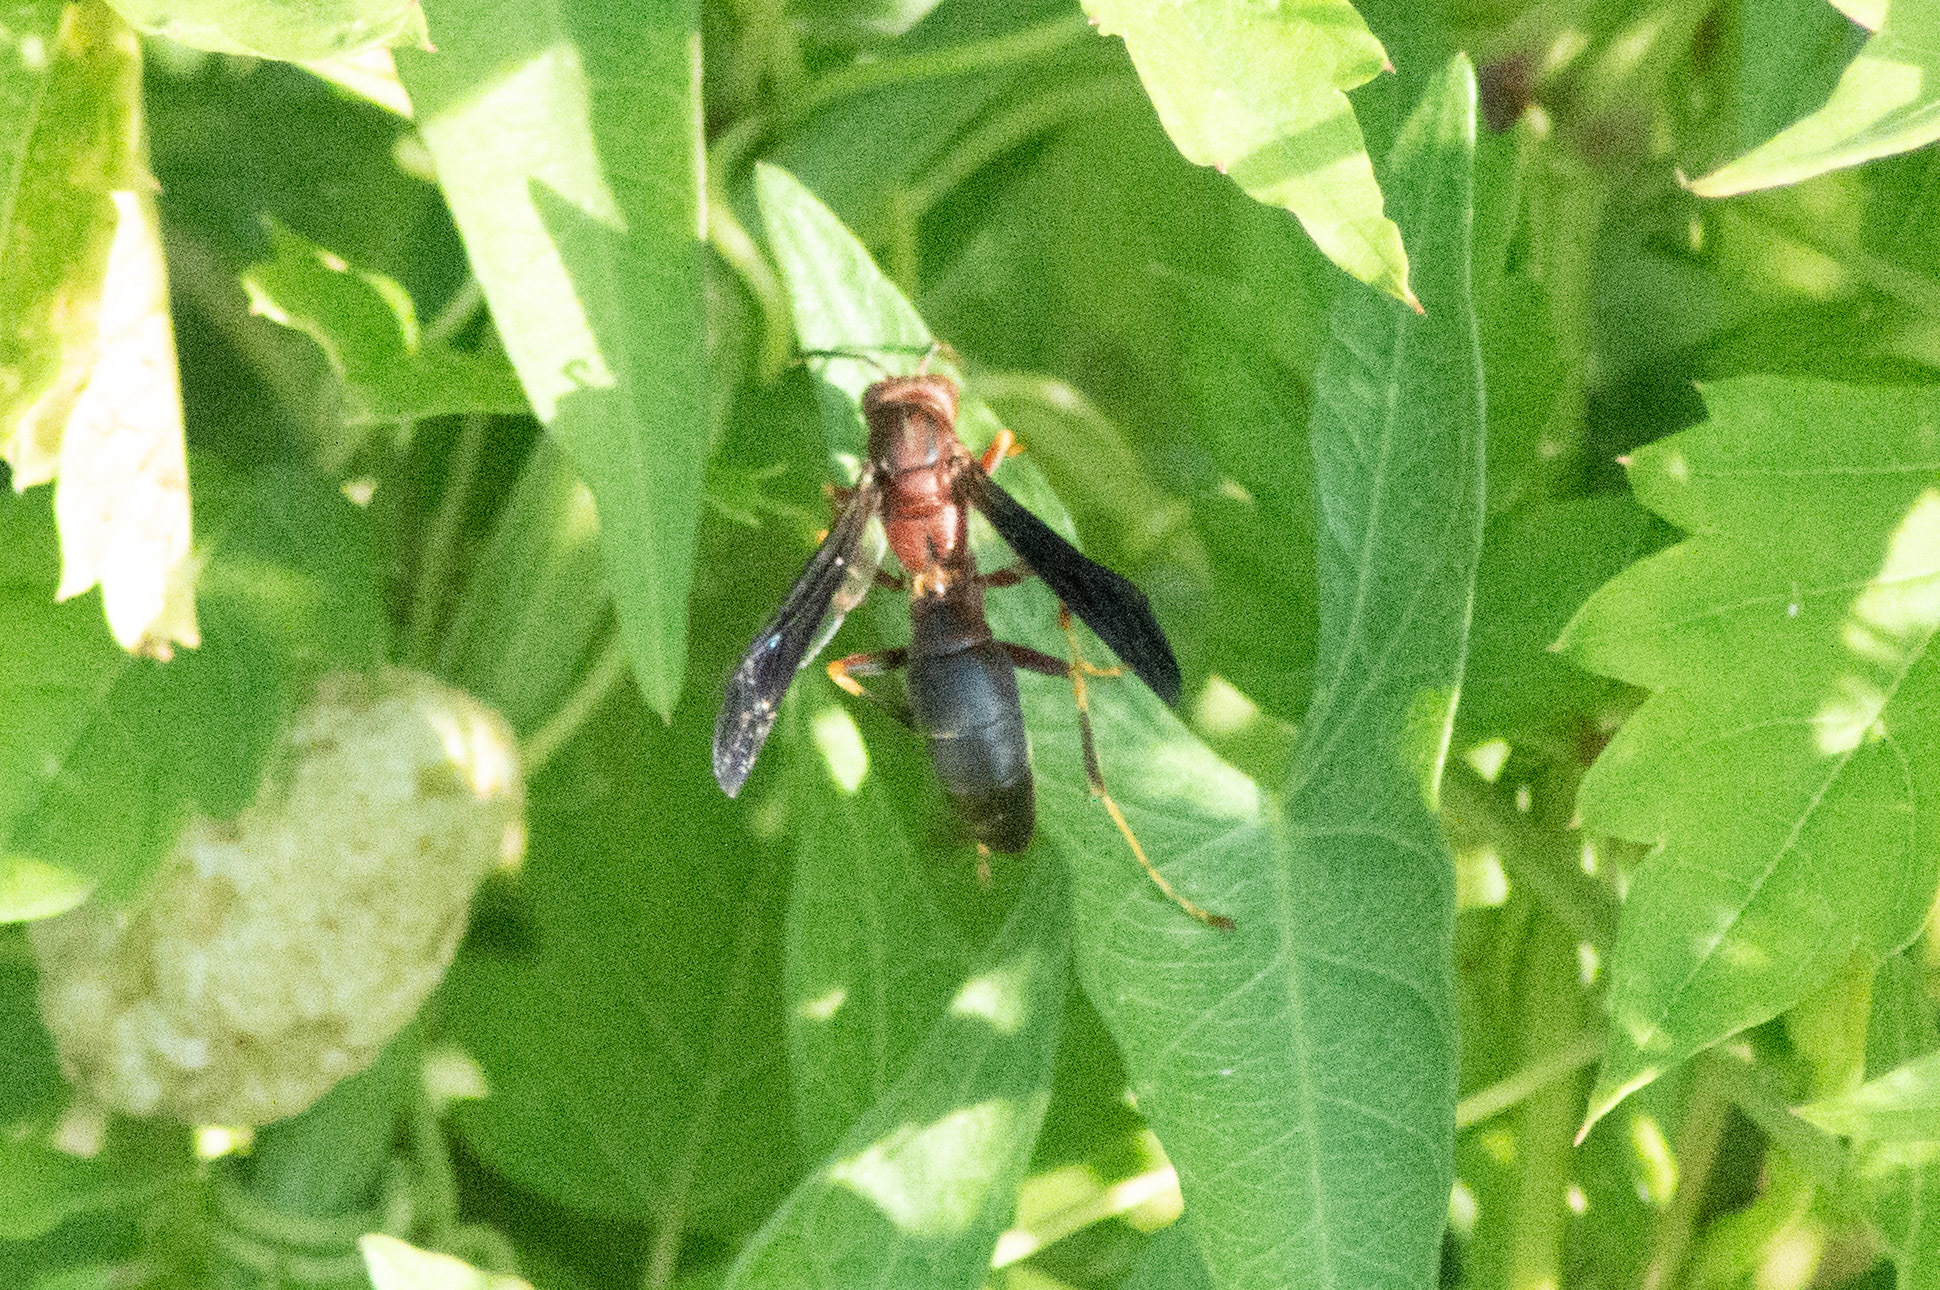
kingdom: Animalia
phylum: Arthropoda
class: Insecta
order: Hymenoptera
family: Eumenidae
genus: Polistes
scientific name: Polistes metricus
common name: Metric paper wasp
